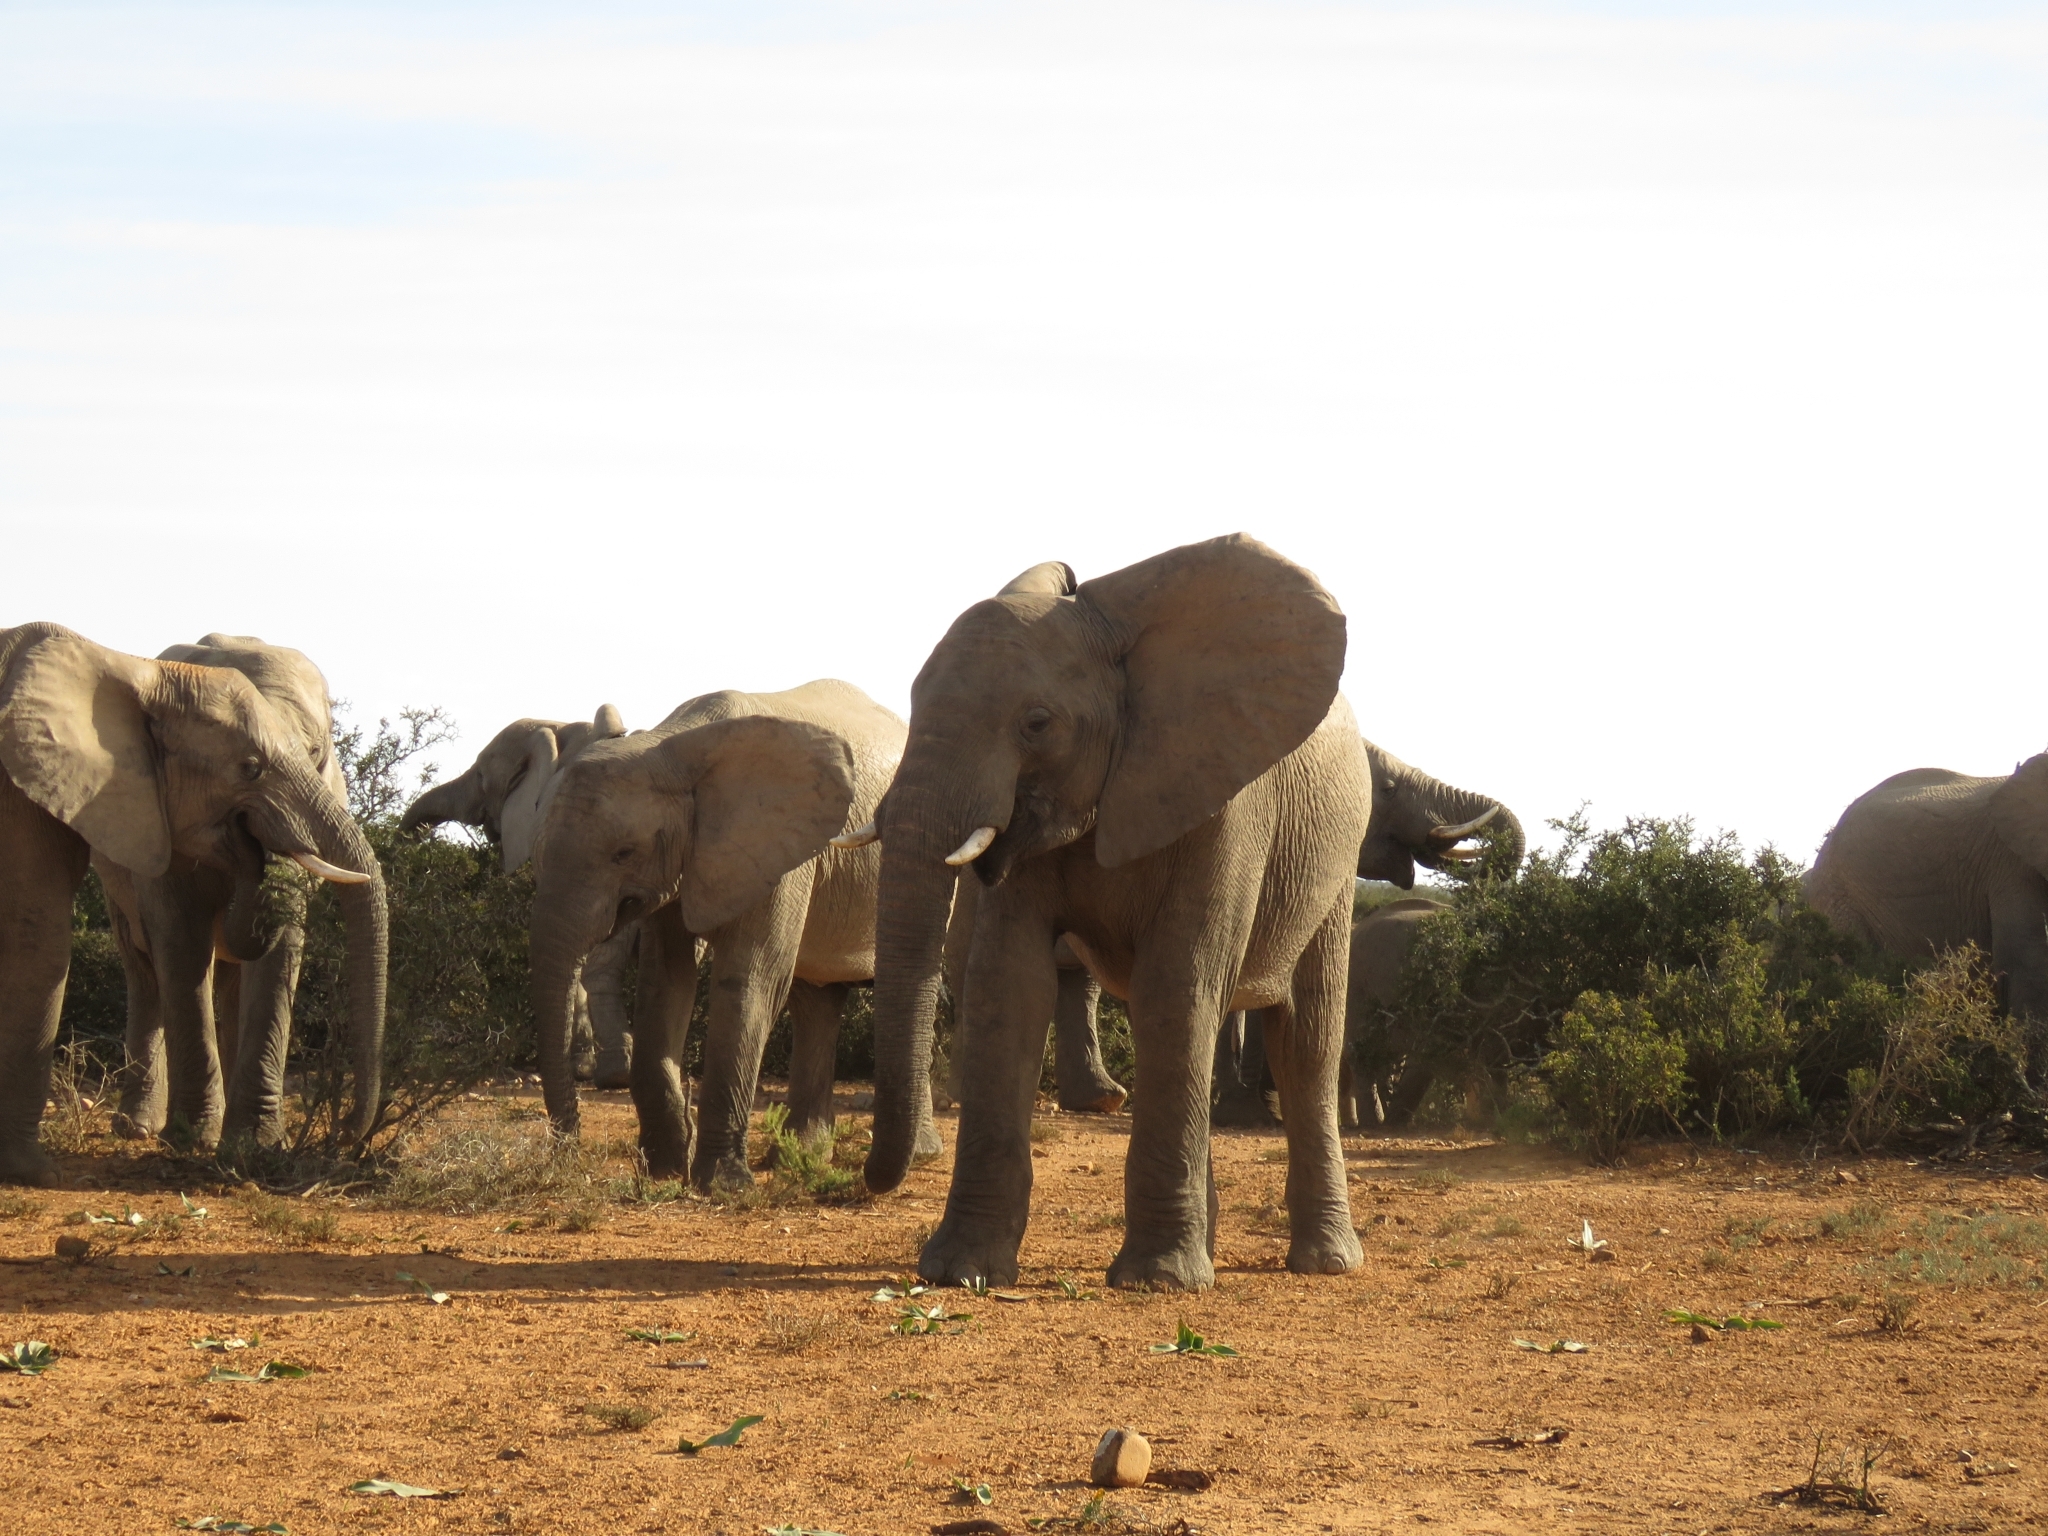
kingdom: Animalia
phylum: Chordata
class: Mammalia
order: Proboscidea
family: Elephantidae
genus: Loxodonta
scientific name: Loxodonta africana
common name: African elephant
